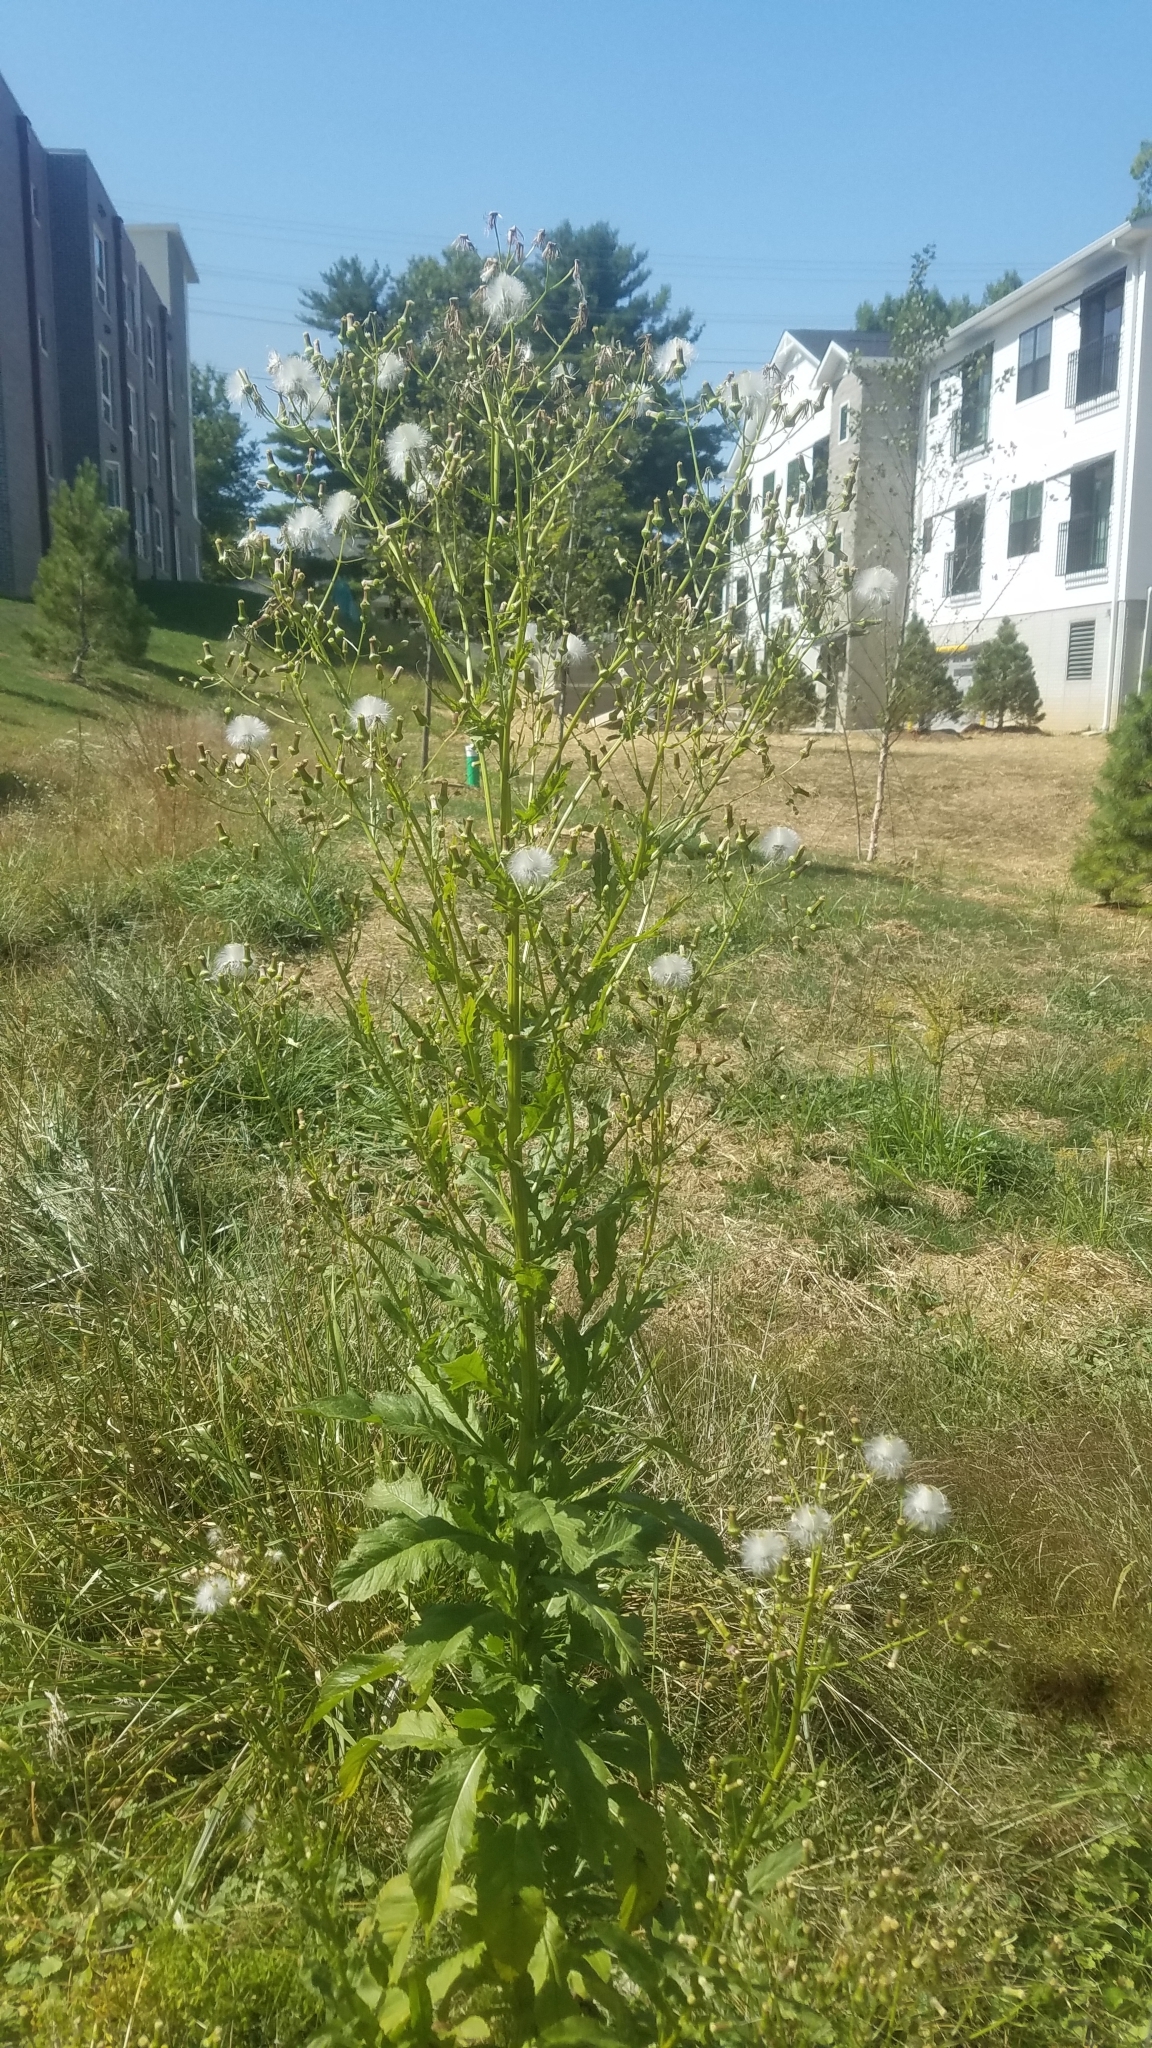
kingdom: Plantae
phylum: Tracheophyta
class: Magnoliopsida
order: Asterales
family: Asteraceae
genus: Erechtites
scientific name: Erechtites hieraciifolius
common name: American burnweed
